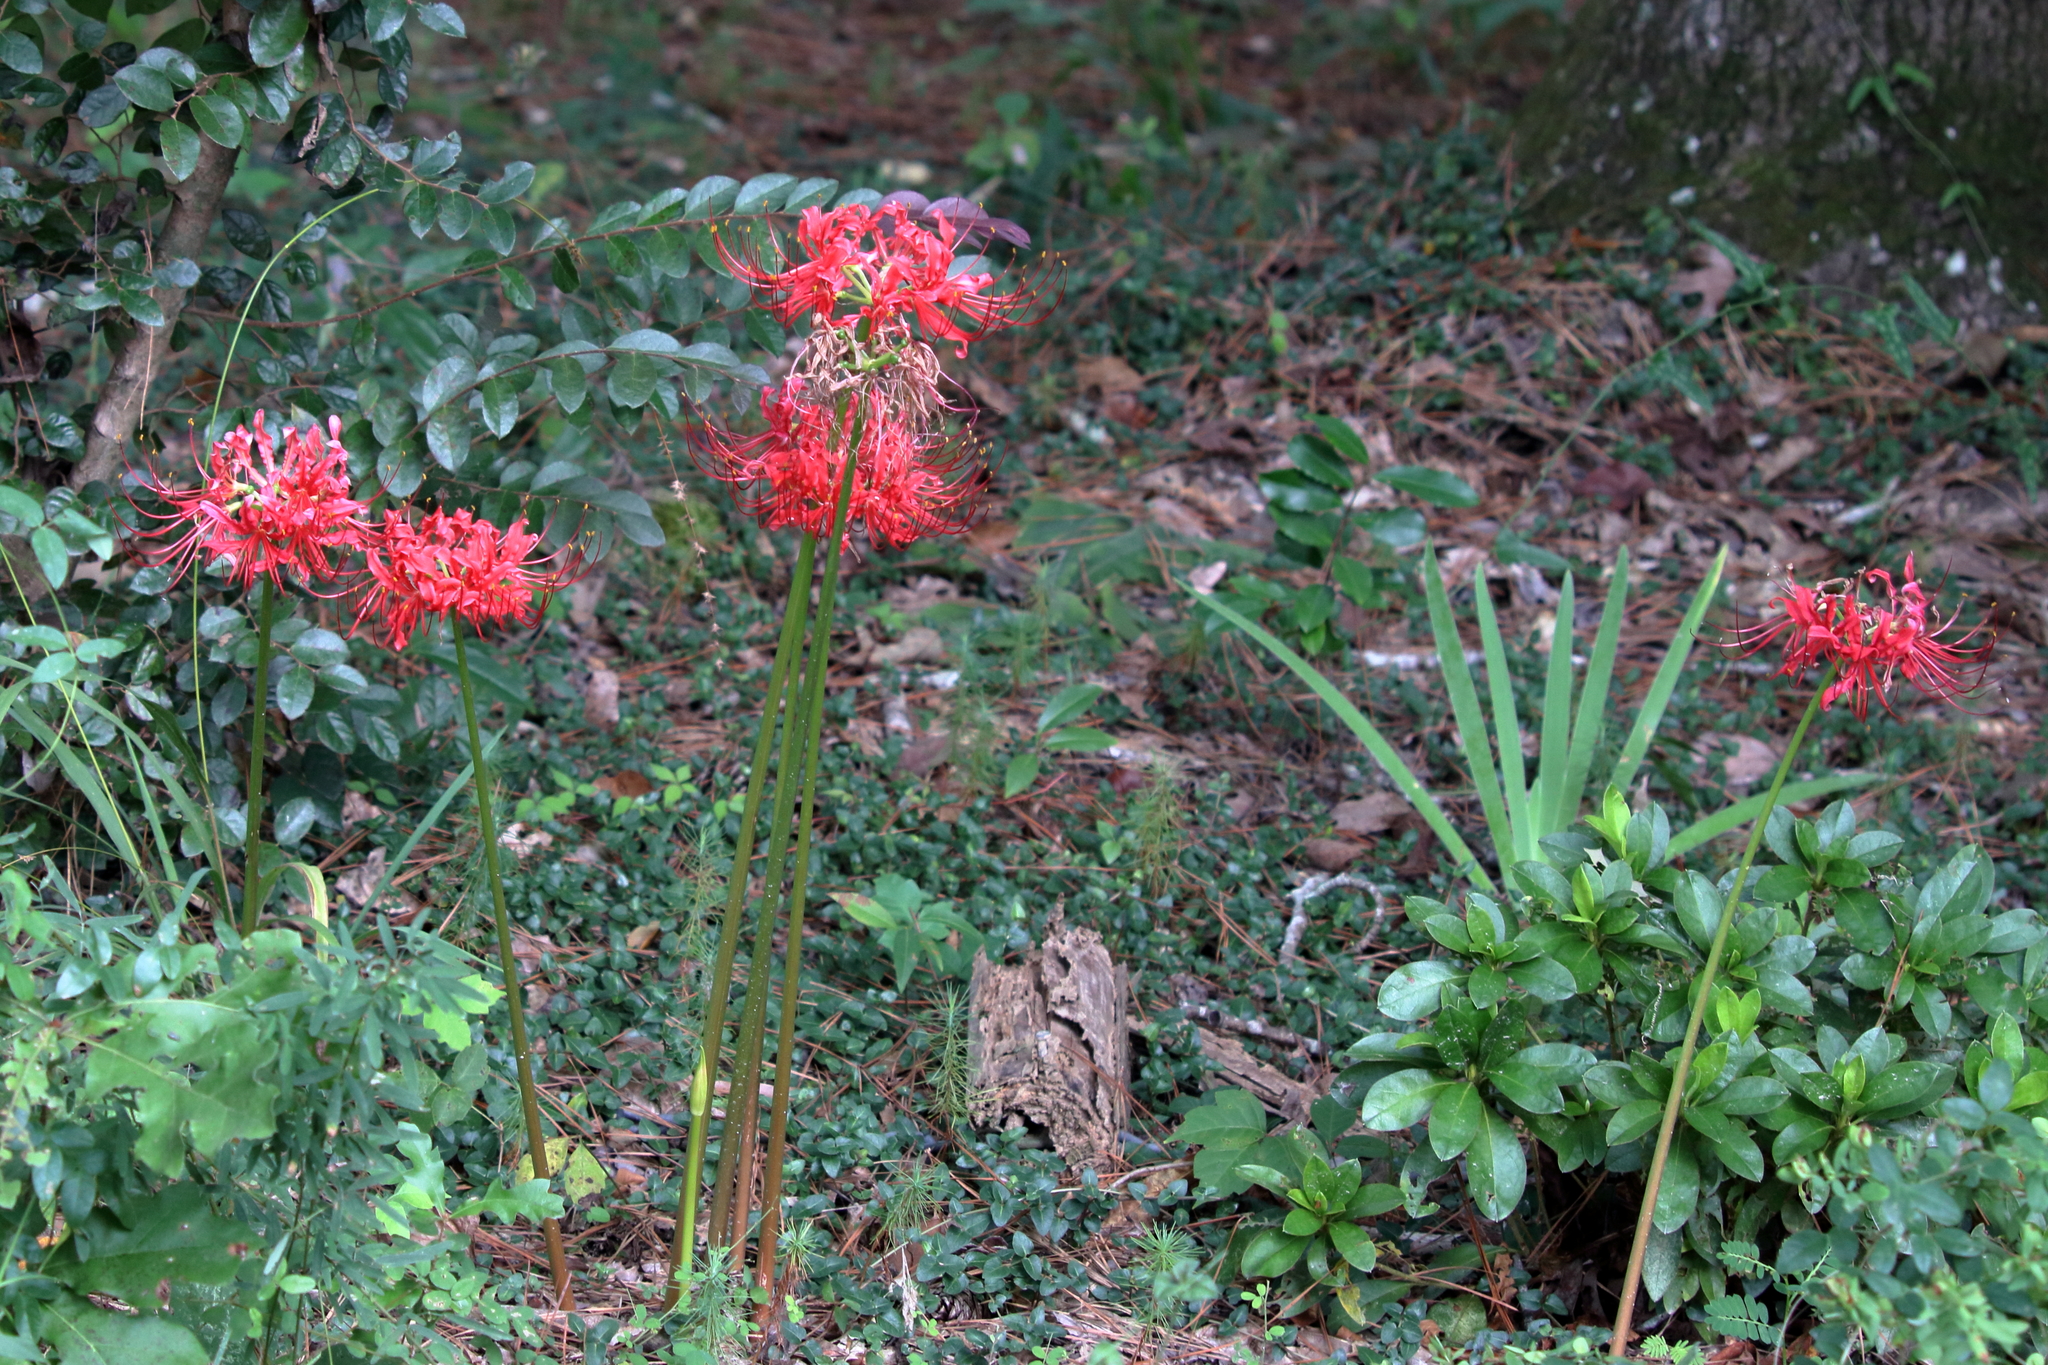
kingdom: Plantae
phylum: Tracheophyta
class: Liliopsida
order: Asparagales
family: Amaryllidaceae
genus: Lycoris
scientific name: Lycoris radiata
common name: Red spider lily
